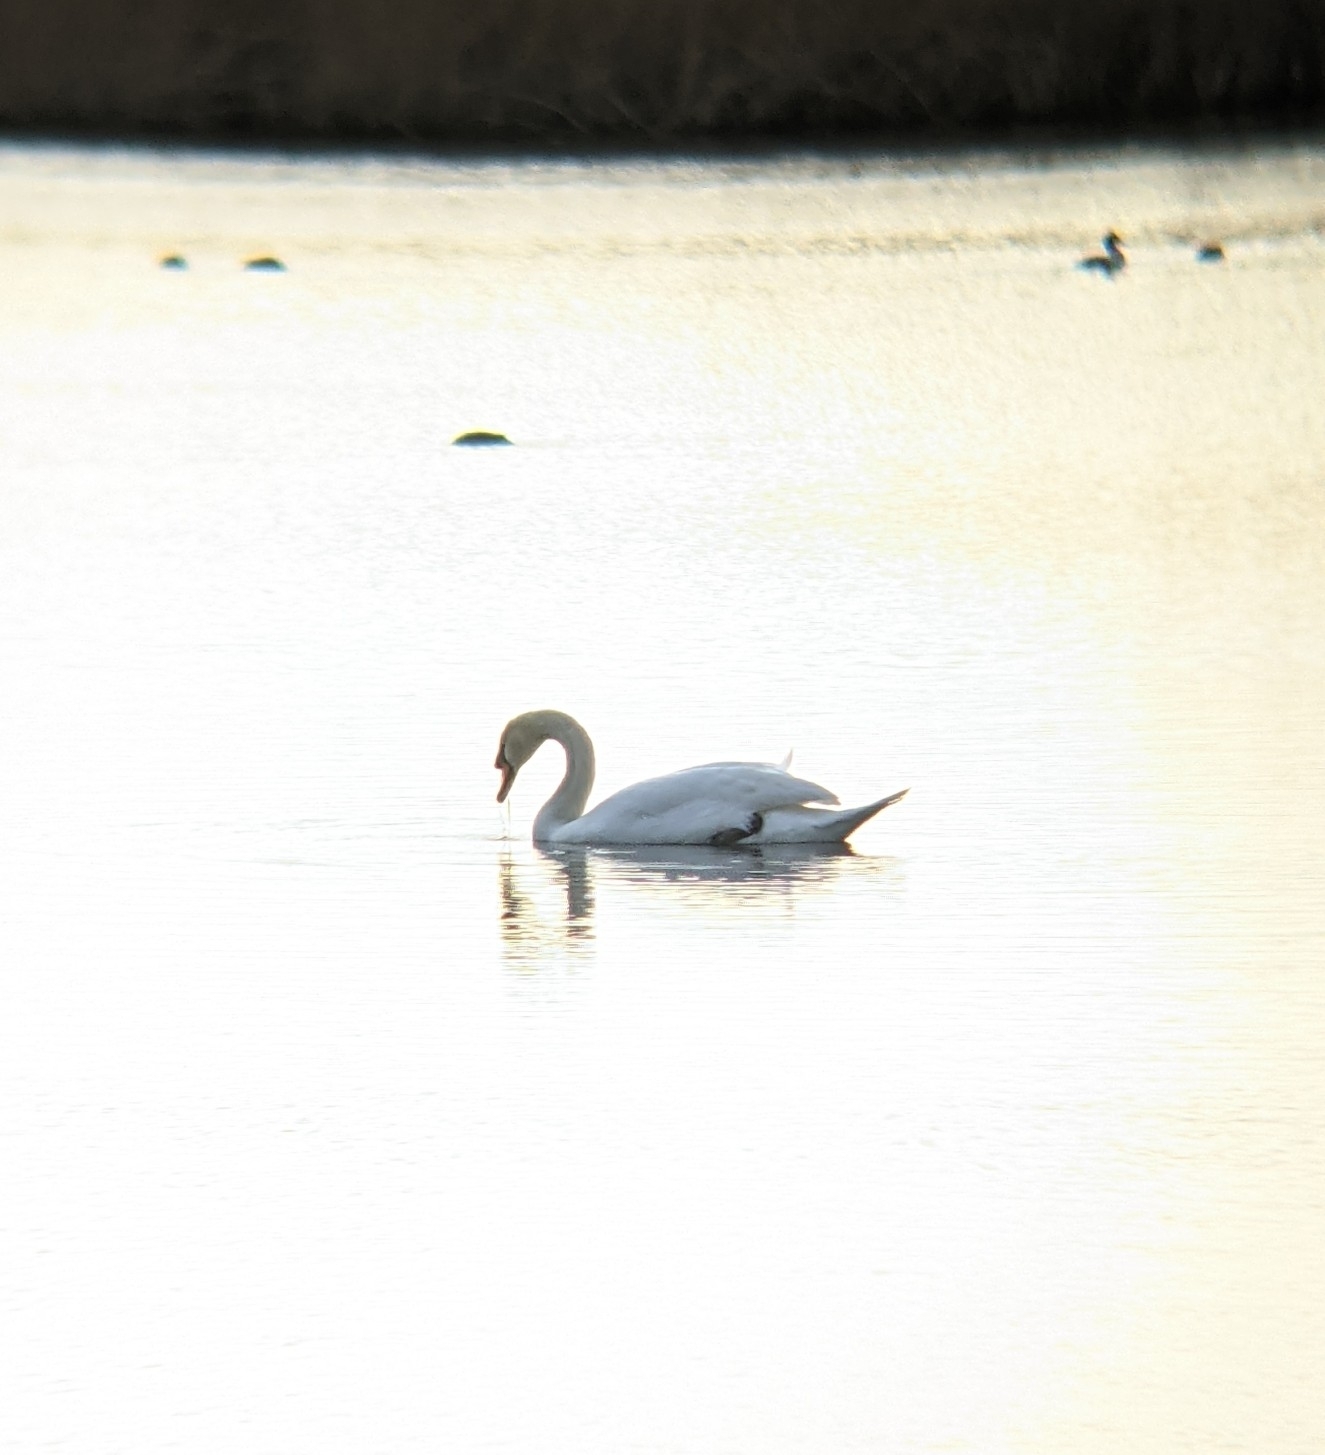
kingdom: Animalia
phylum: Chordata
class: Aves
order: Anseriformes
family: Anatidae
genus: Cygnus
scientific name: Cygnus olor
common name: Mute swan
